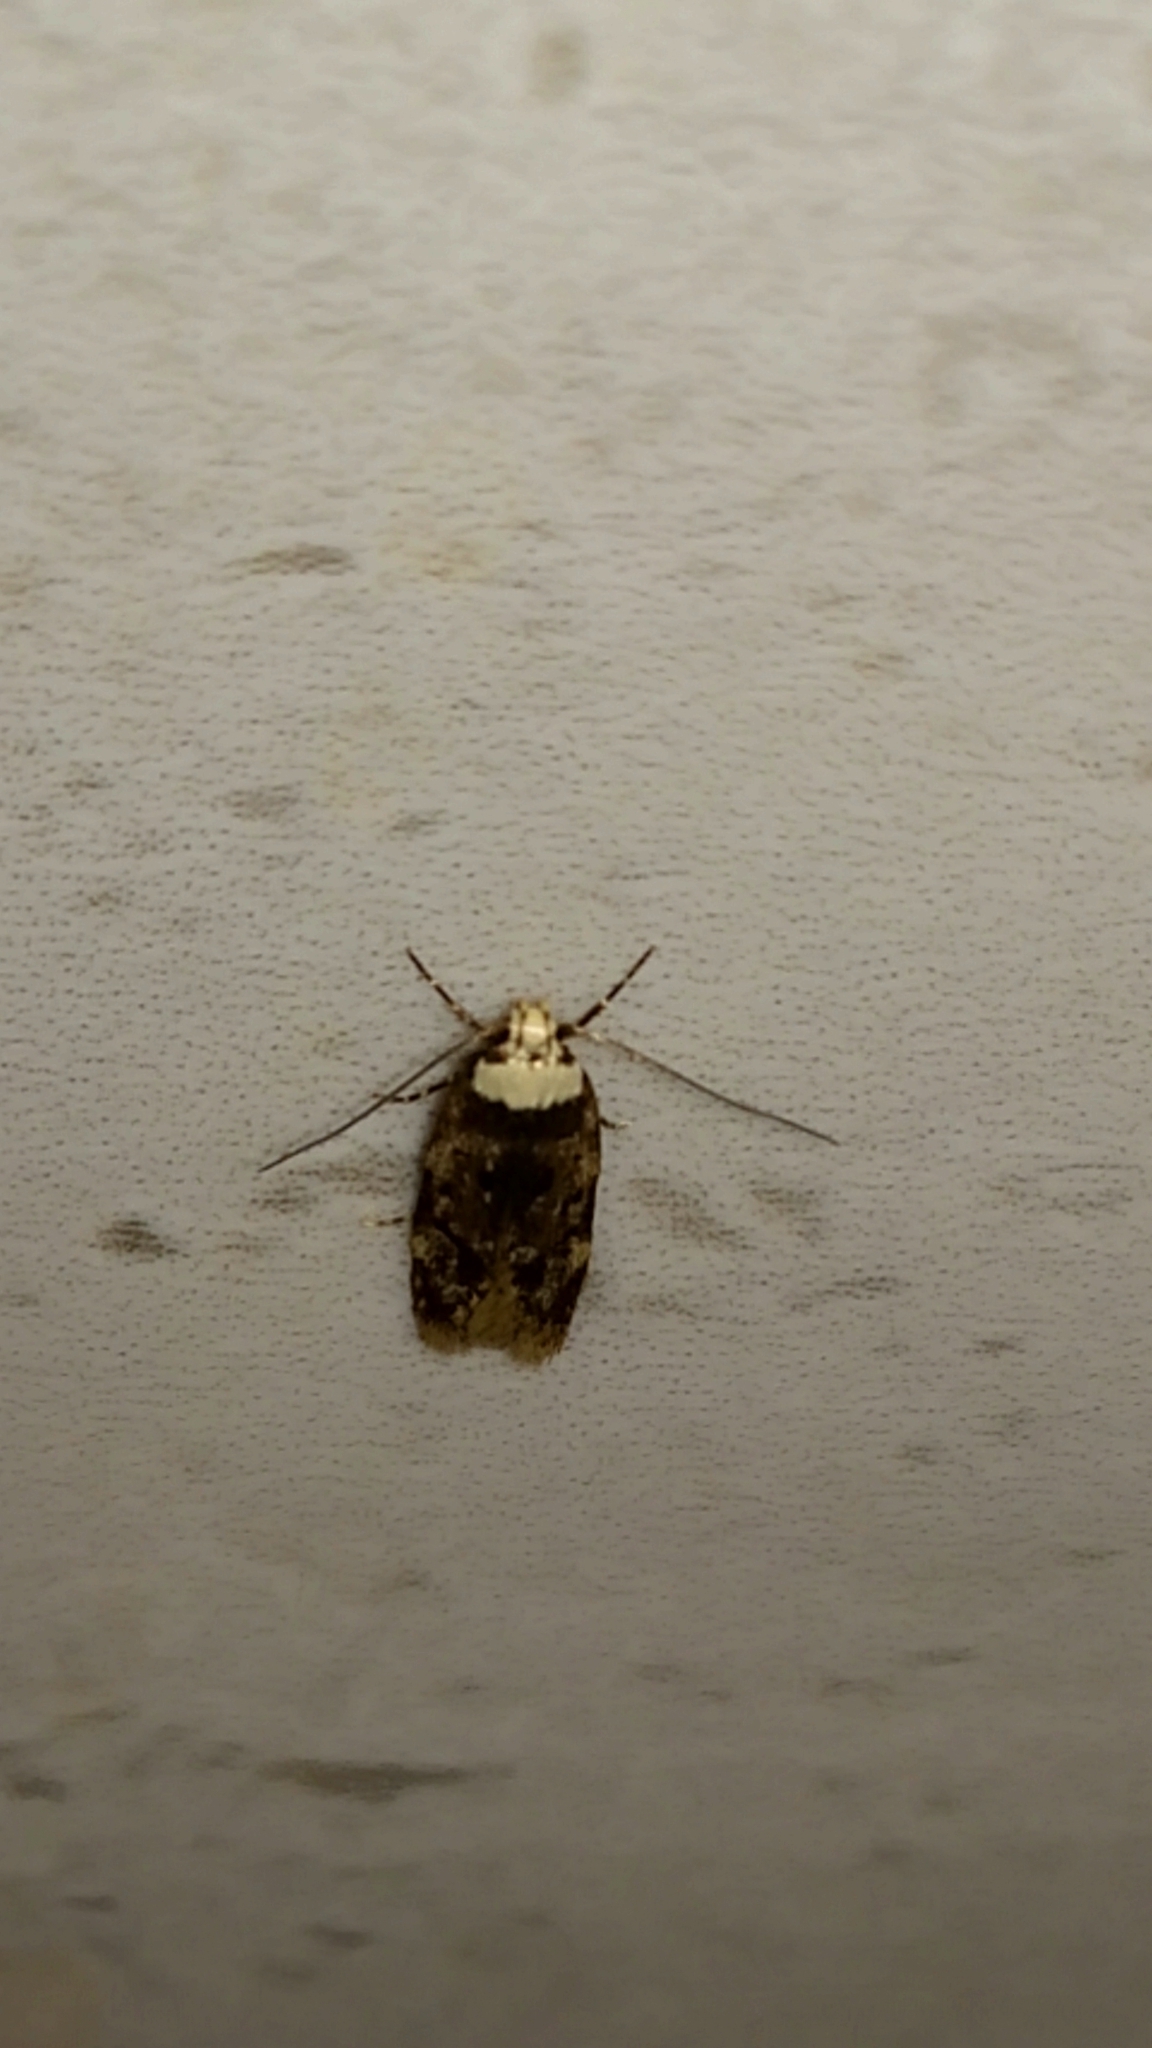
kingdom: Animalia
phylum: Arthropoda
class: Insecta
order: Lepidoptera
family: Oecophoridae
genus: Endrosis
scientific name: Endrosis sarcitrella
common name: White-shouldered house moth
